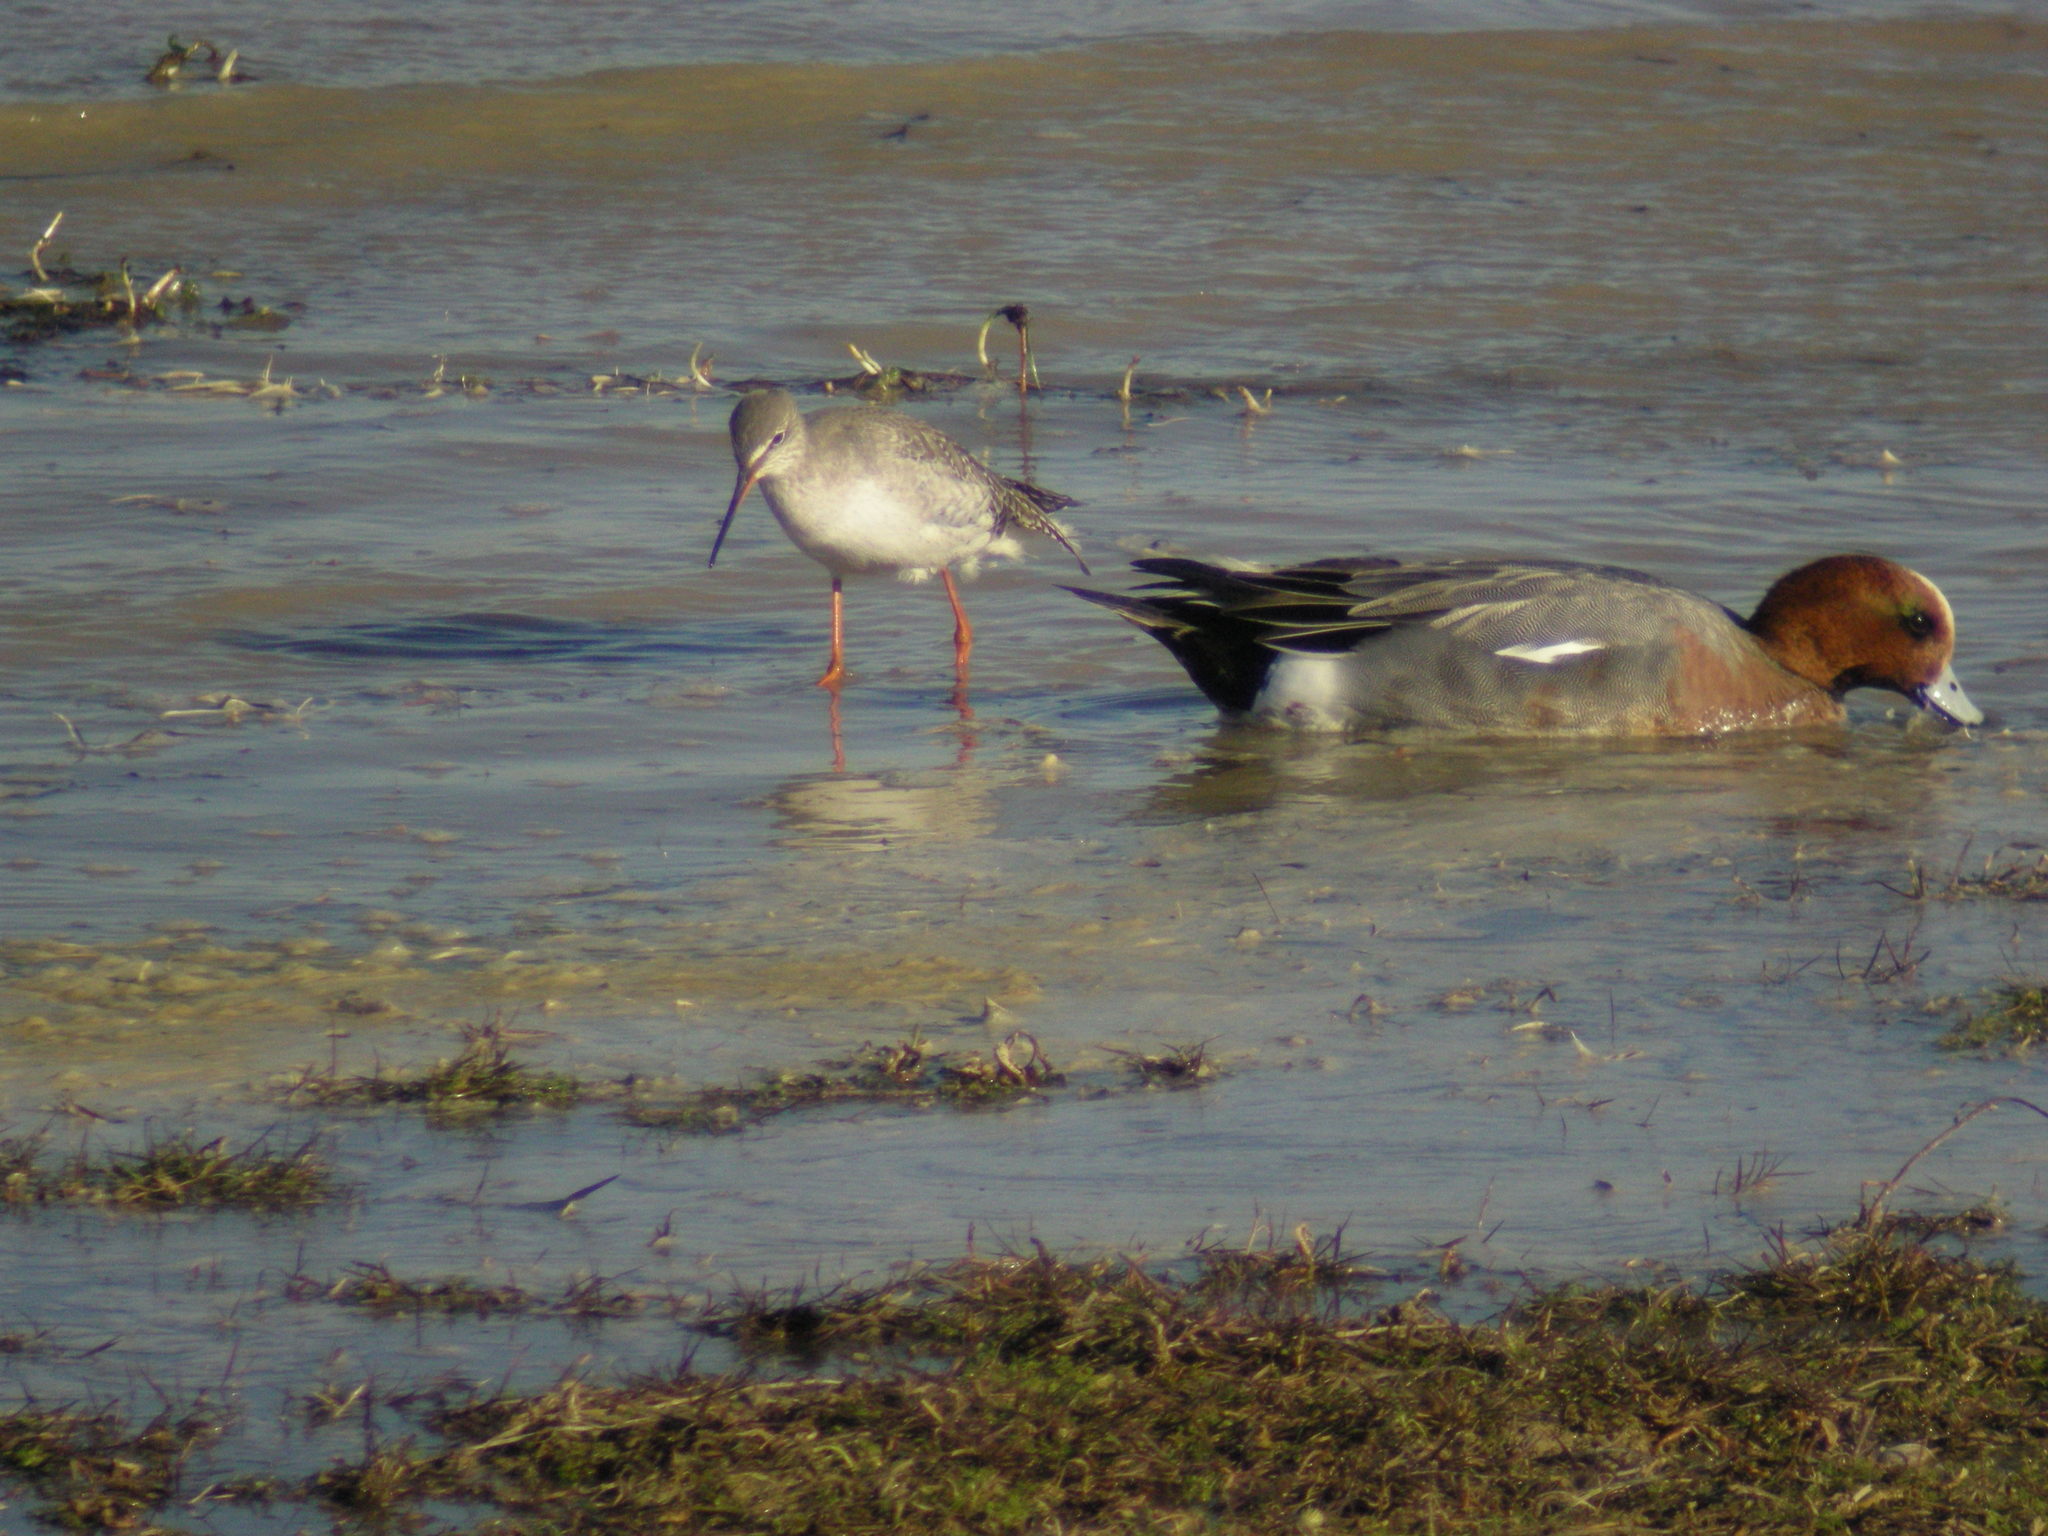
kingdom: Animalia
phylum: Chordata
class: Aves
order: Charadriiformes
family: Scolopacidae
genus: Tringa
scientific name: Tringa erythropus
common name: Spotted redshank
